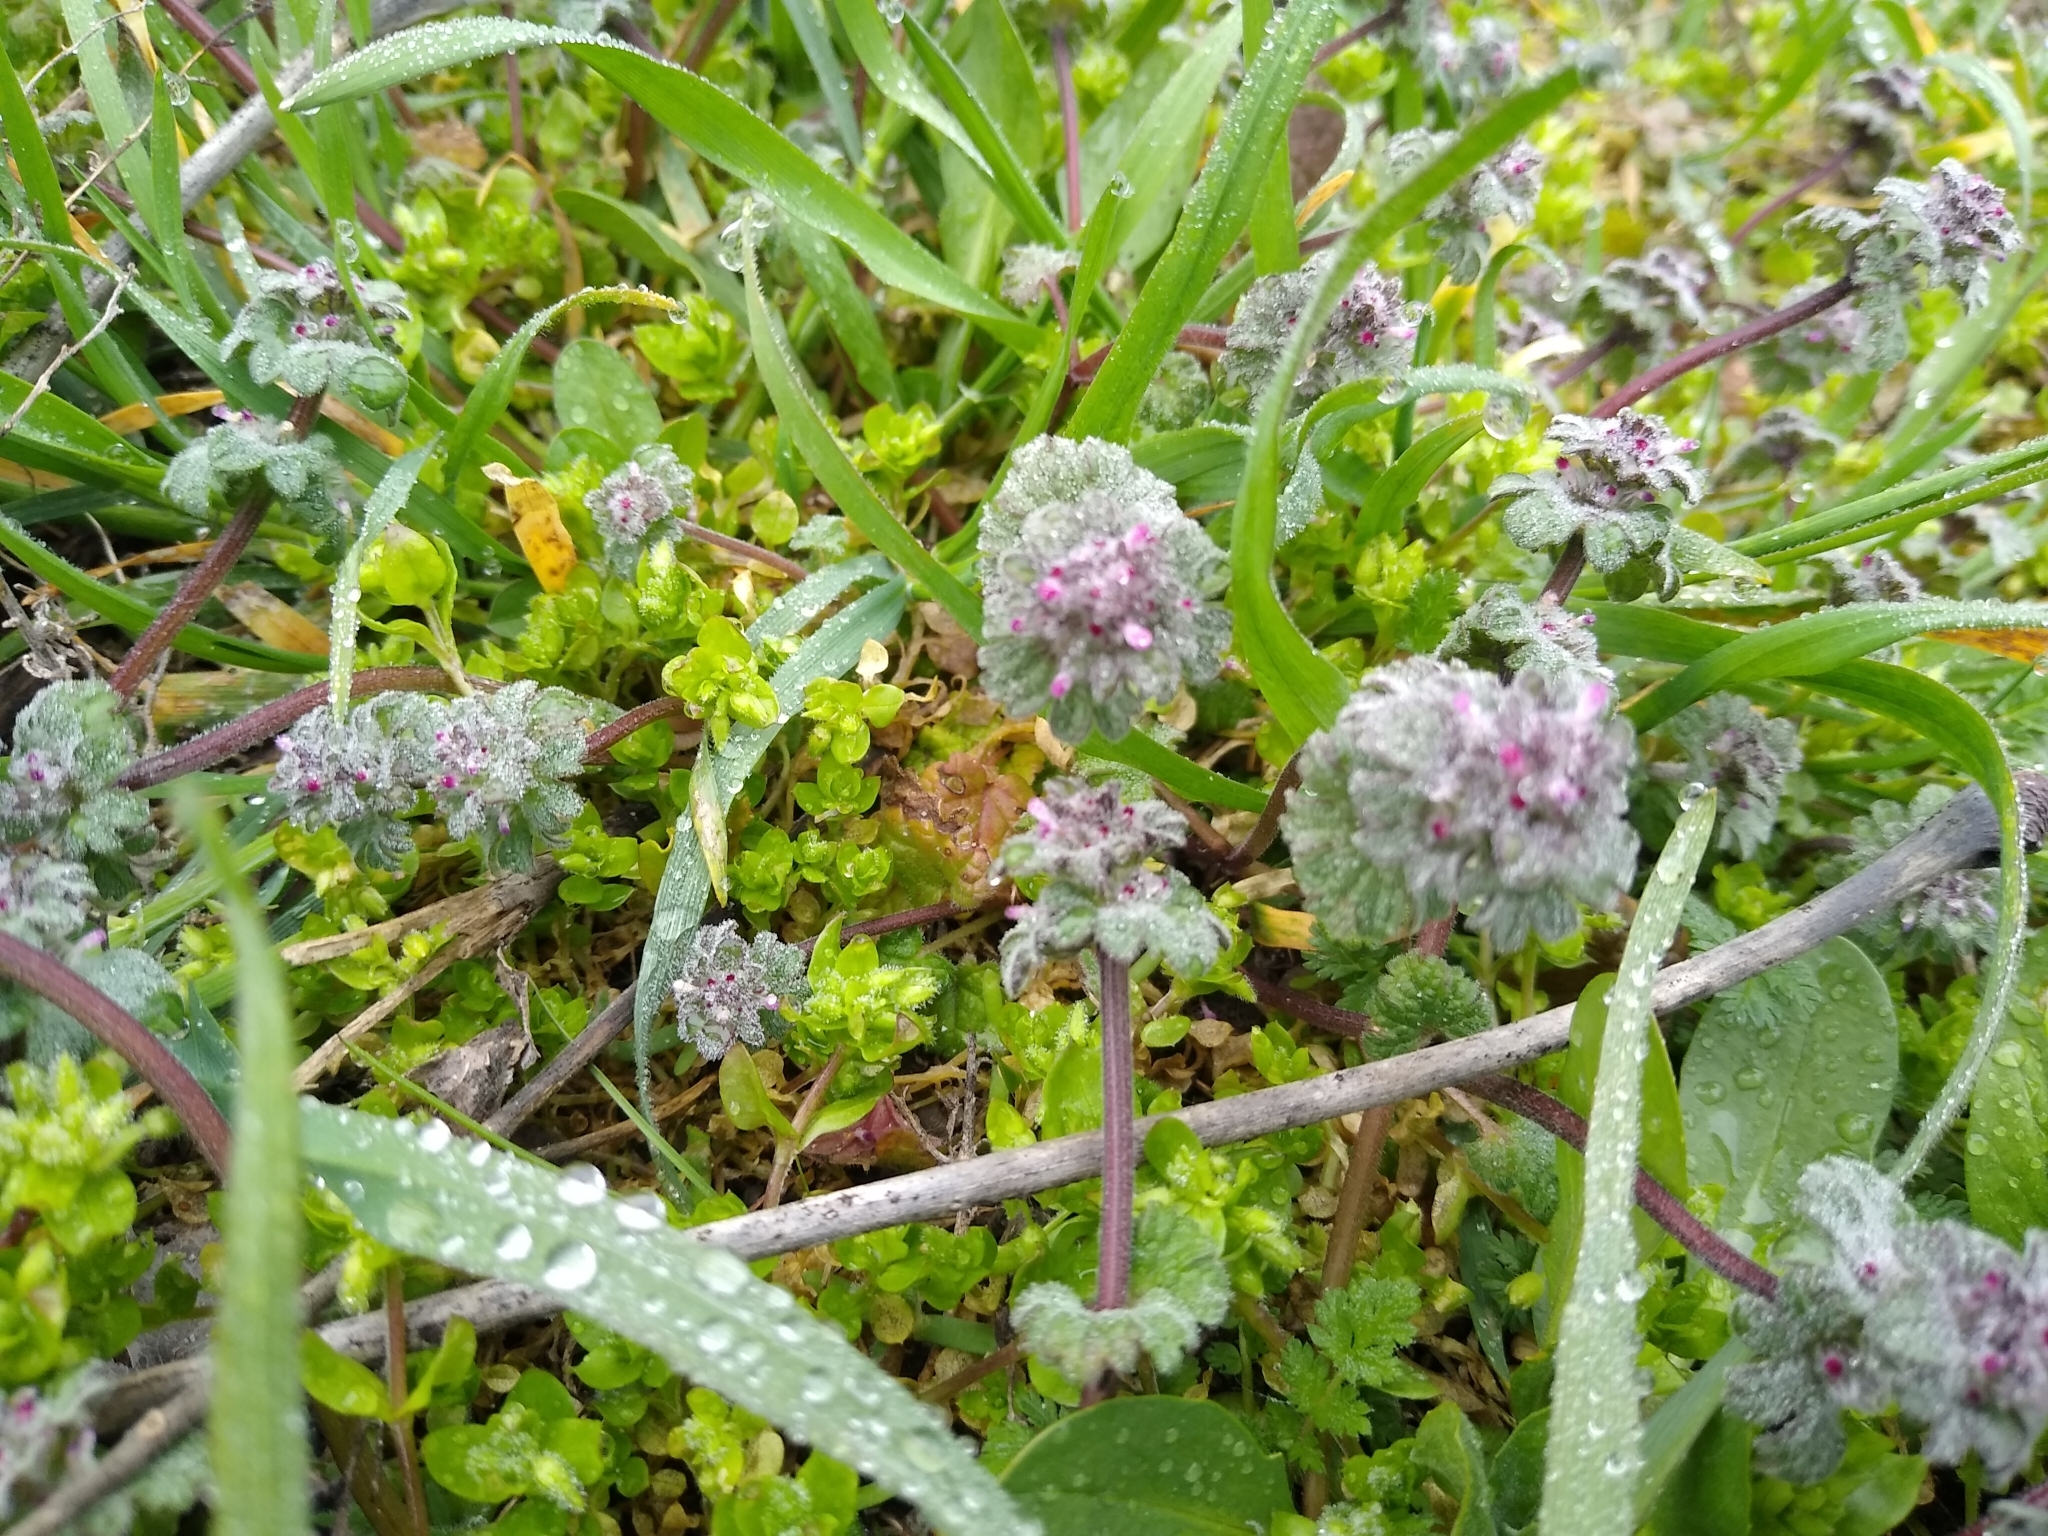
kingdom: Plantae
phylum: Tracheophyta
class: Magnoliopsida
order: Lamiales
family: Lamiaceae
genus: Lamium
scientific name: Lamium amplexicaule
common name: Henbit dead-nettle
